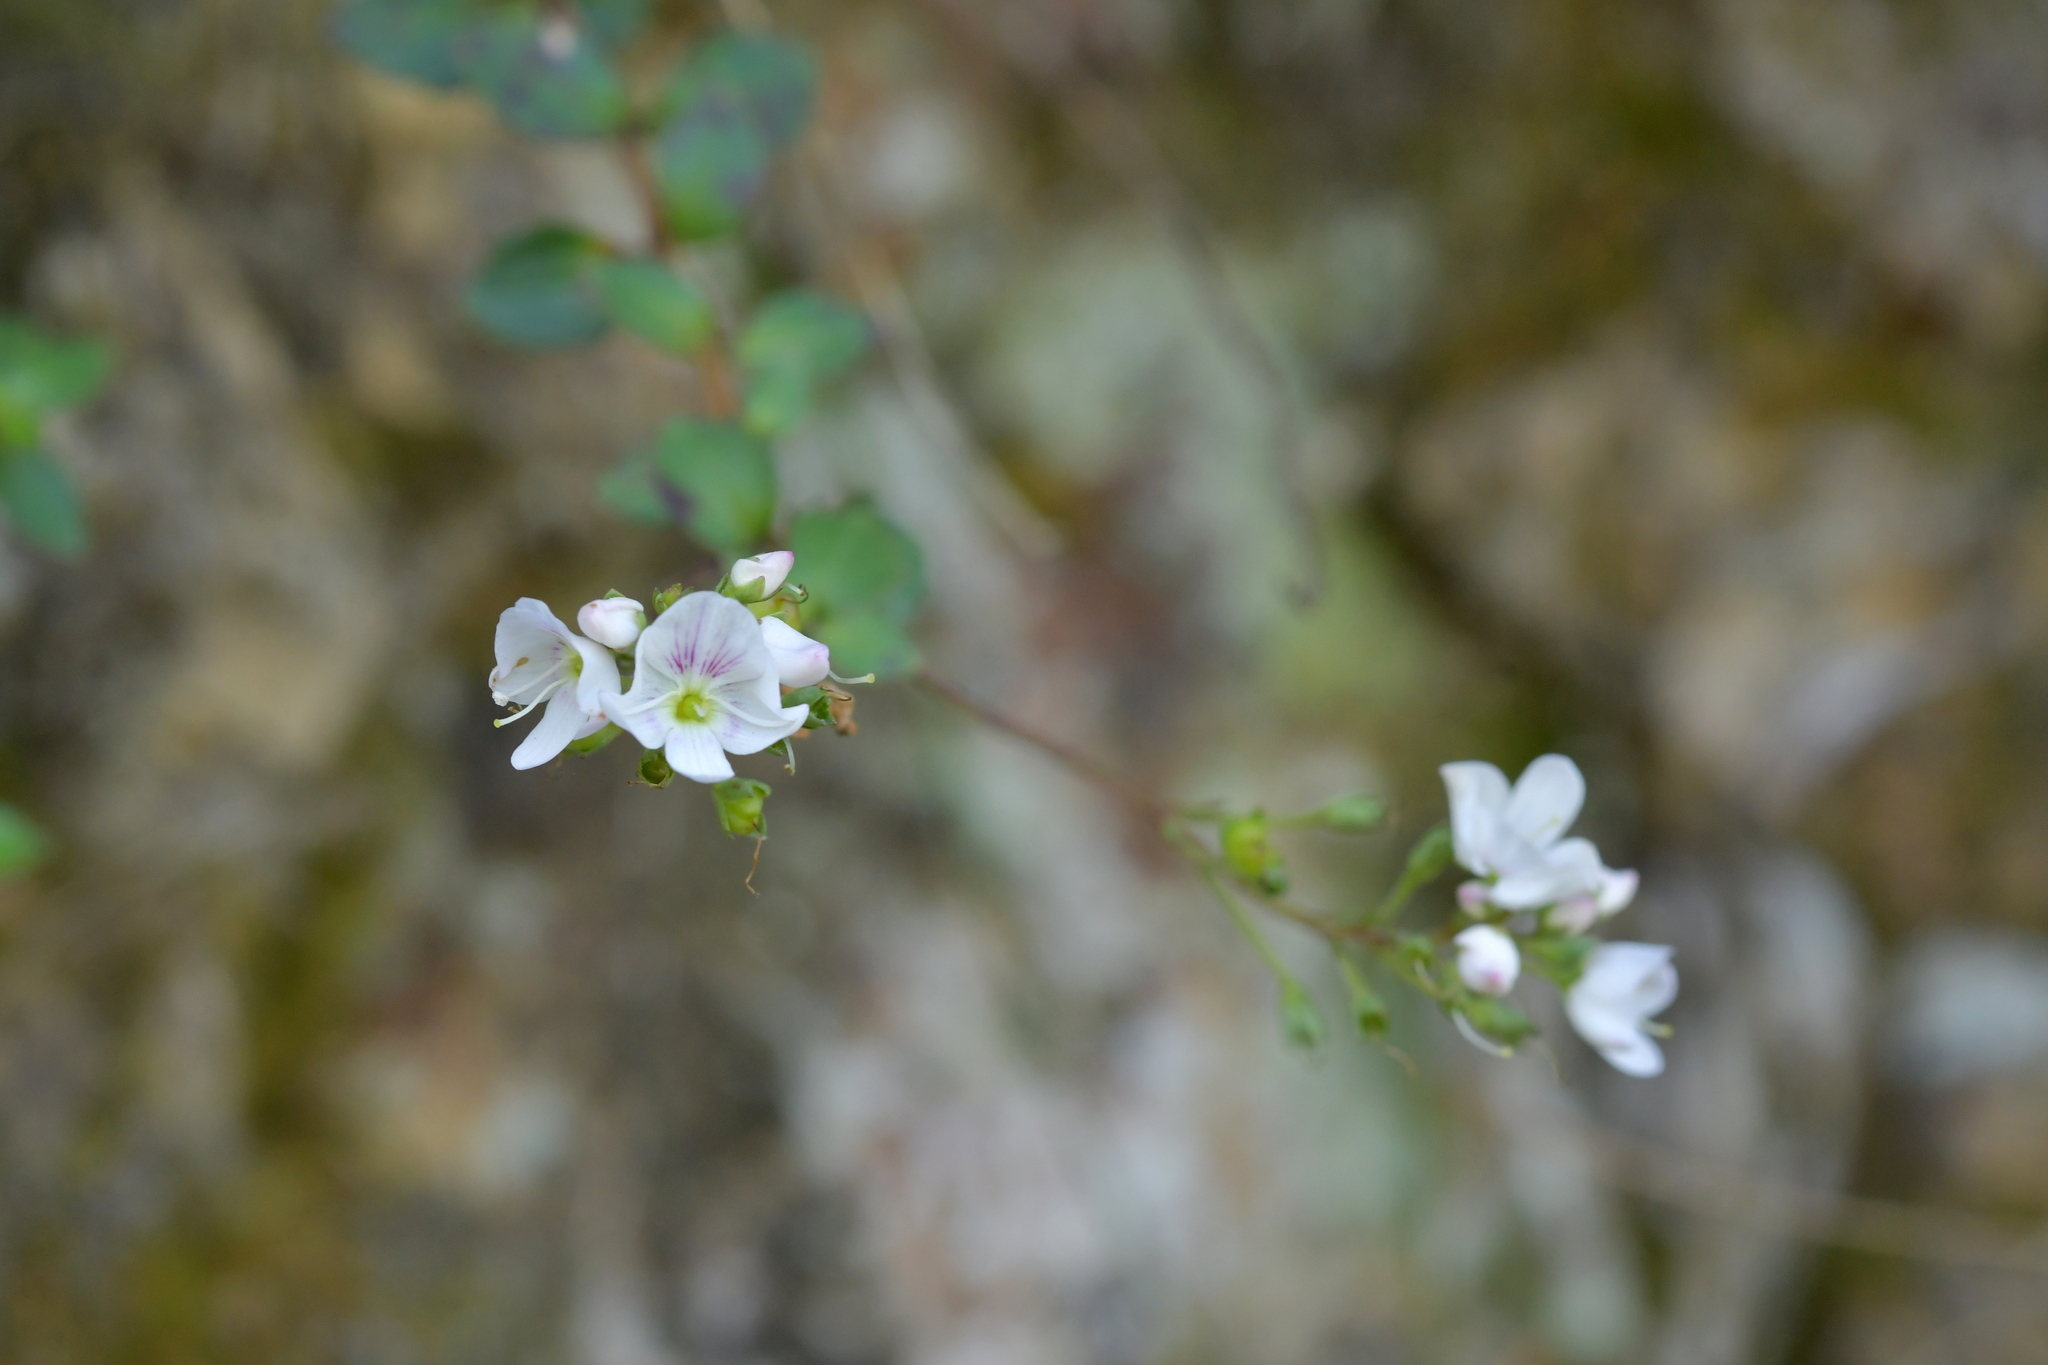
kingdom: Plantae
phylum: Tracheophyta
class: Magnoliopsida
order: Lamiales
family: Plantaginaceae
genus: Veronica
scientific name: Veronica lanceolata
